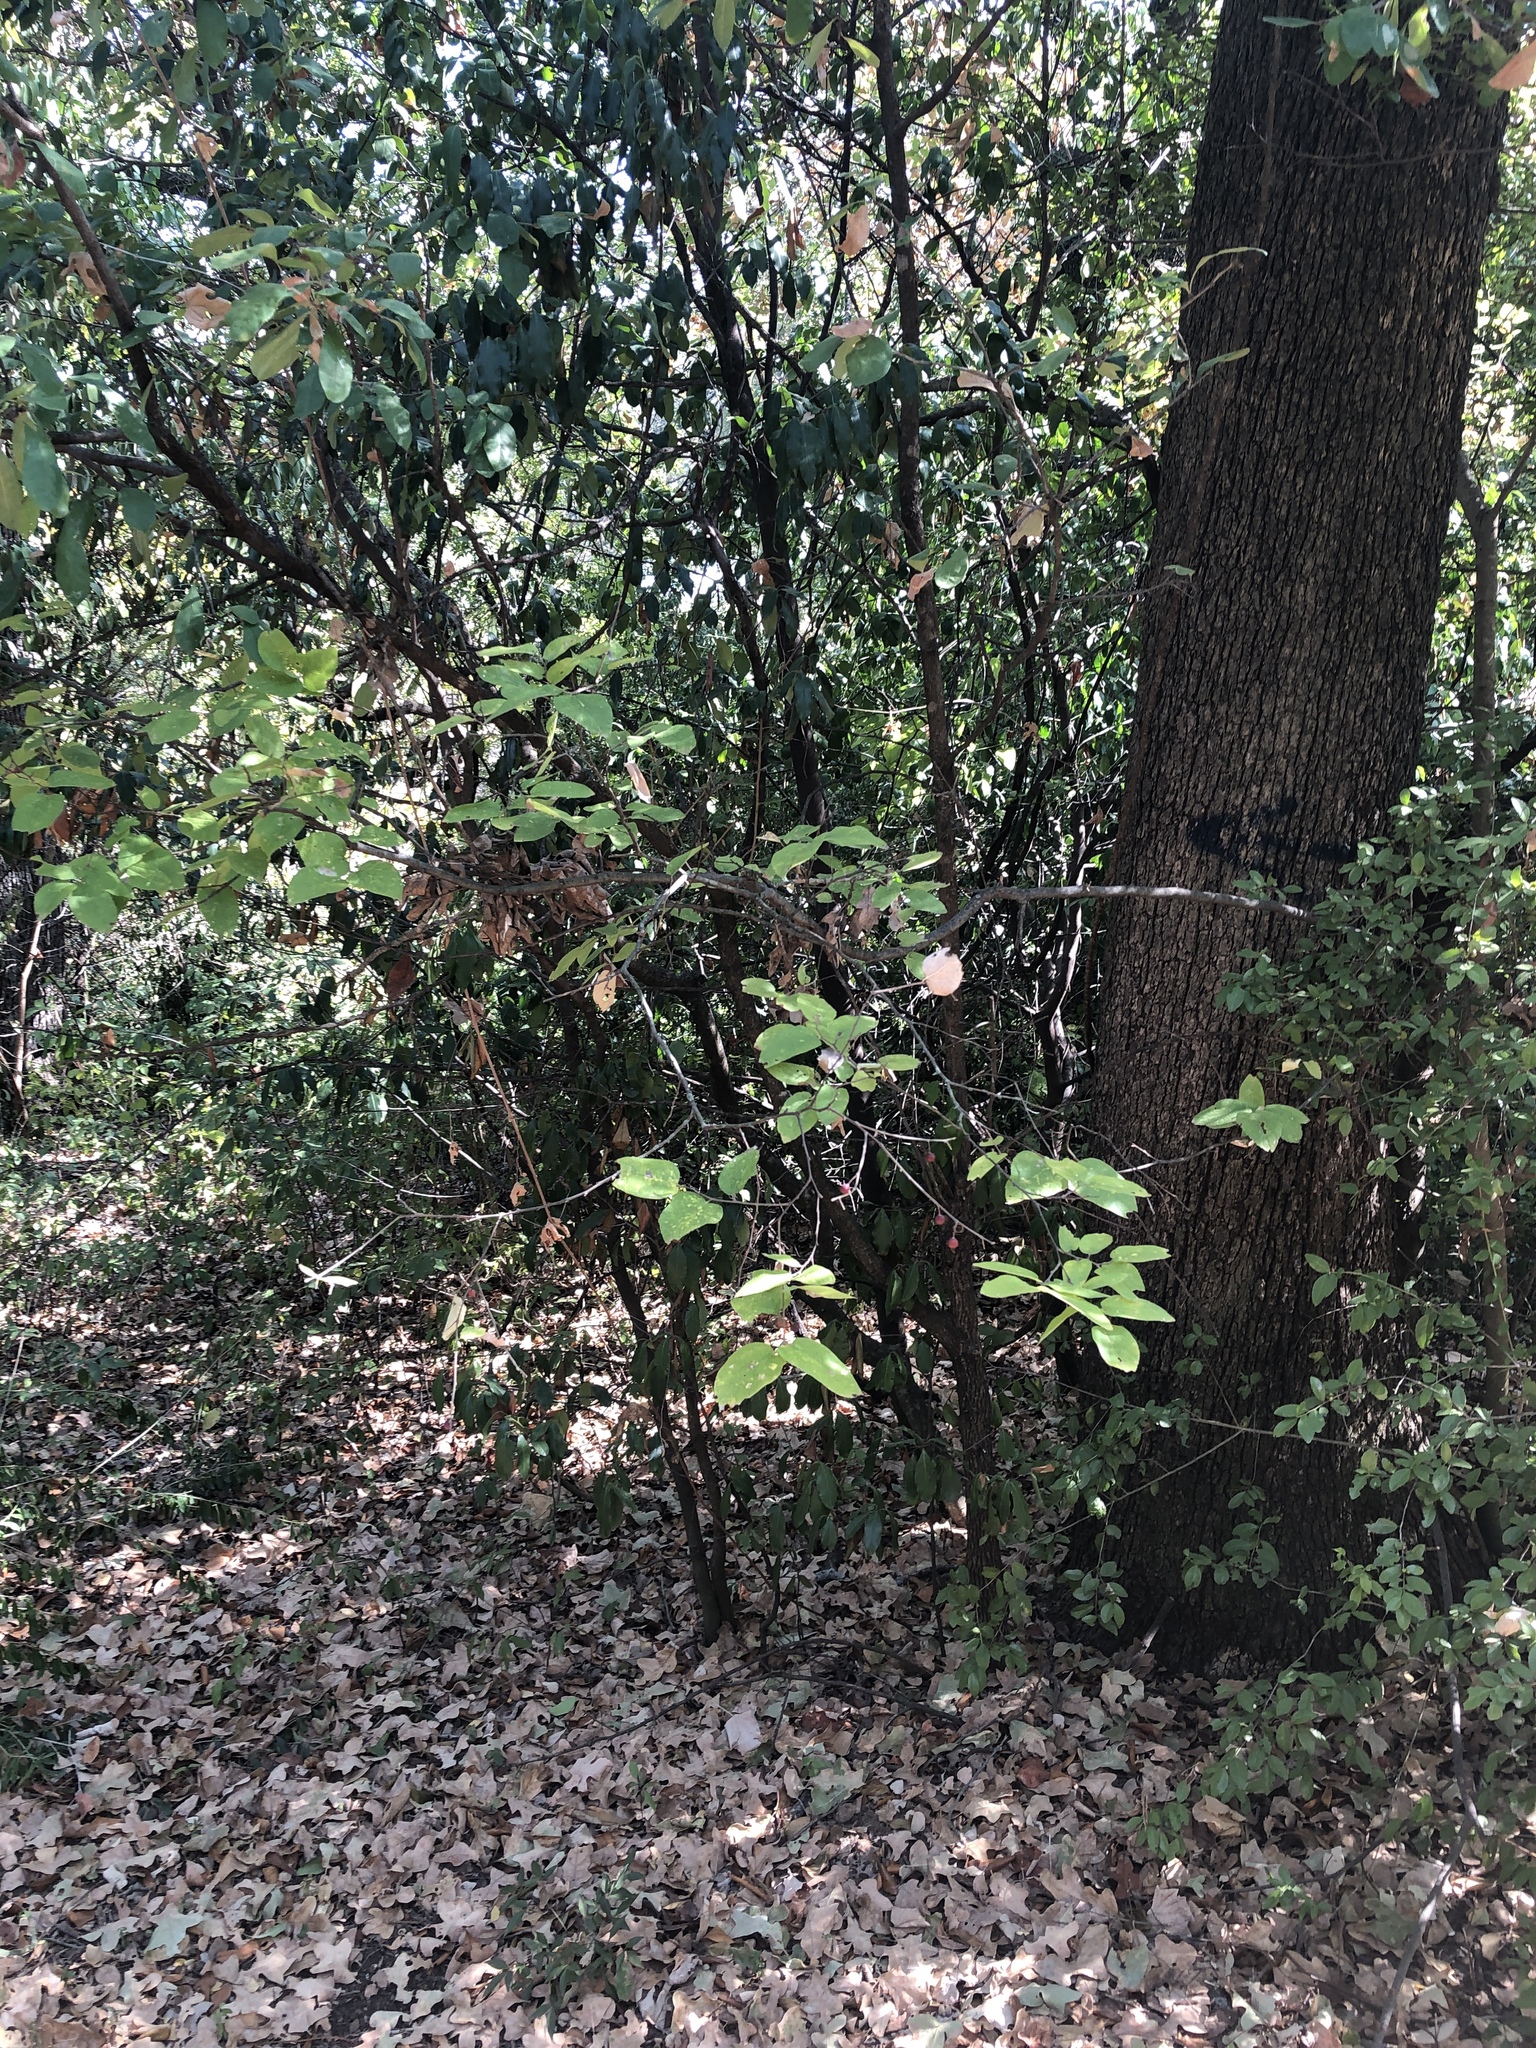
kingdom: Plantae
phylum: Tracheophyta
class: Magnoliopsida
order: Rosales
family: Cannabaceae
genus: Celtis
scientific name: Celtis reticulata
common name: Netleaf hackberry
